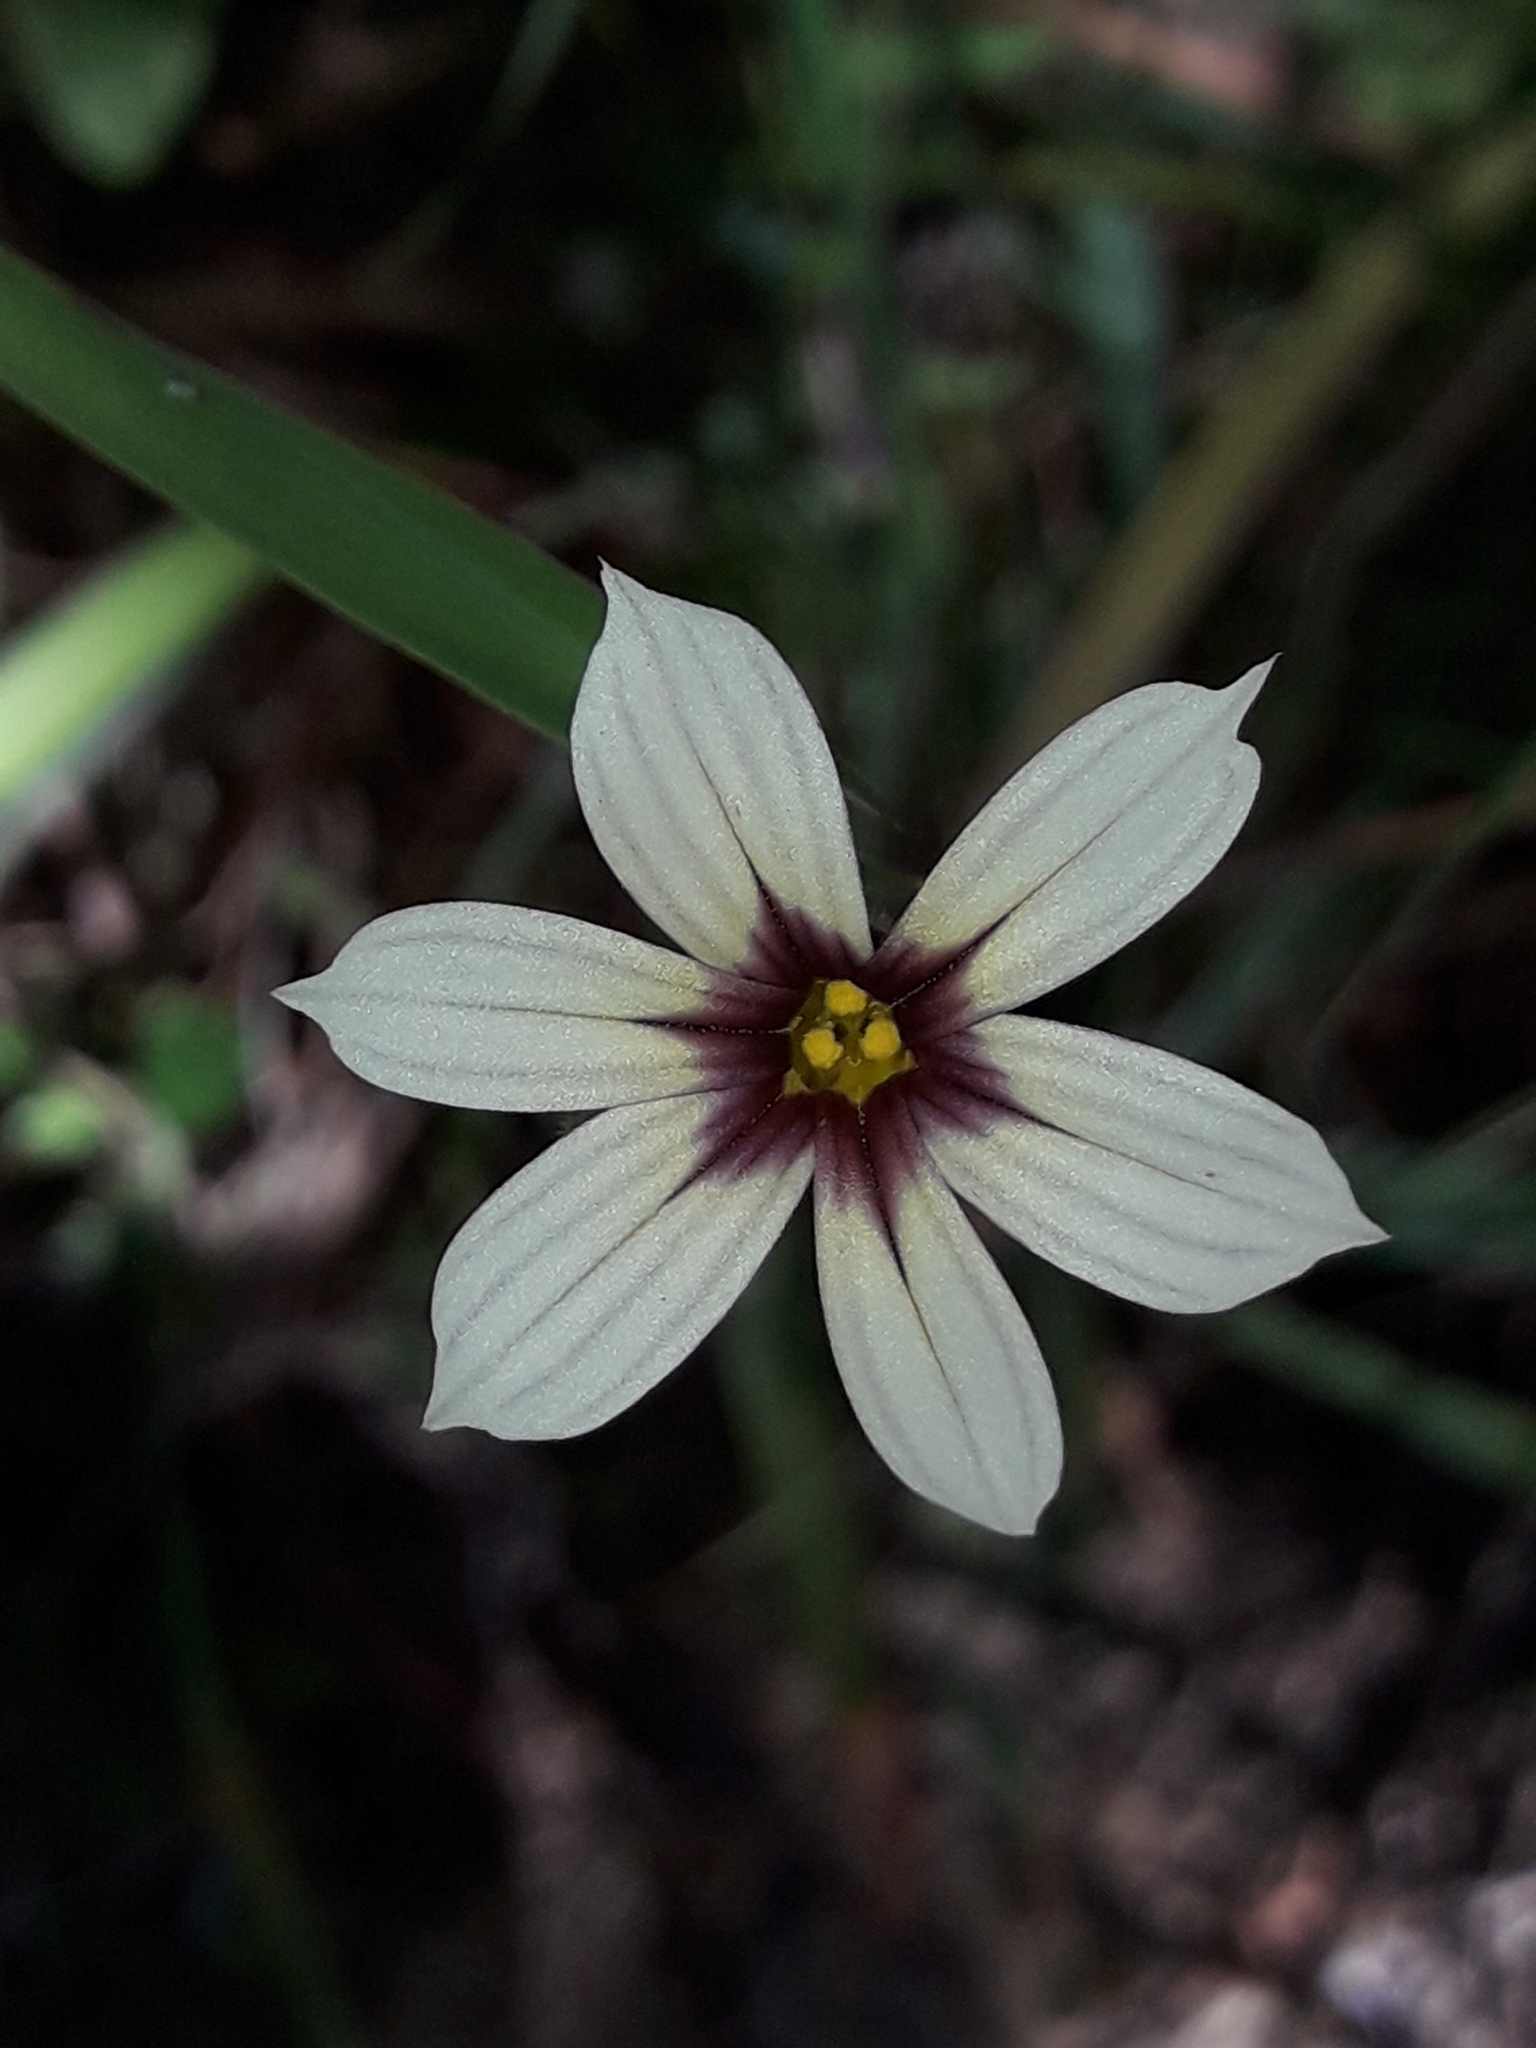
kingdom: Plantae
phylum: Tracheophyta
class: Liliopsida
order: Asparagales
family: Iridaceae
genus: Sisyrinchium
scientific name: Sisyrinchium micranthum
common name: Bermuda pigroot
